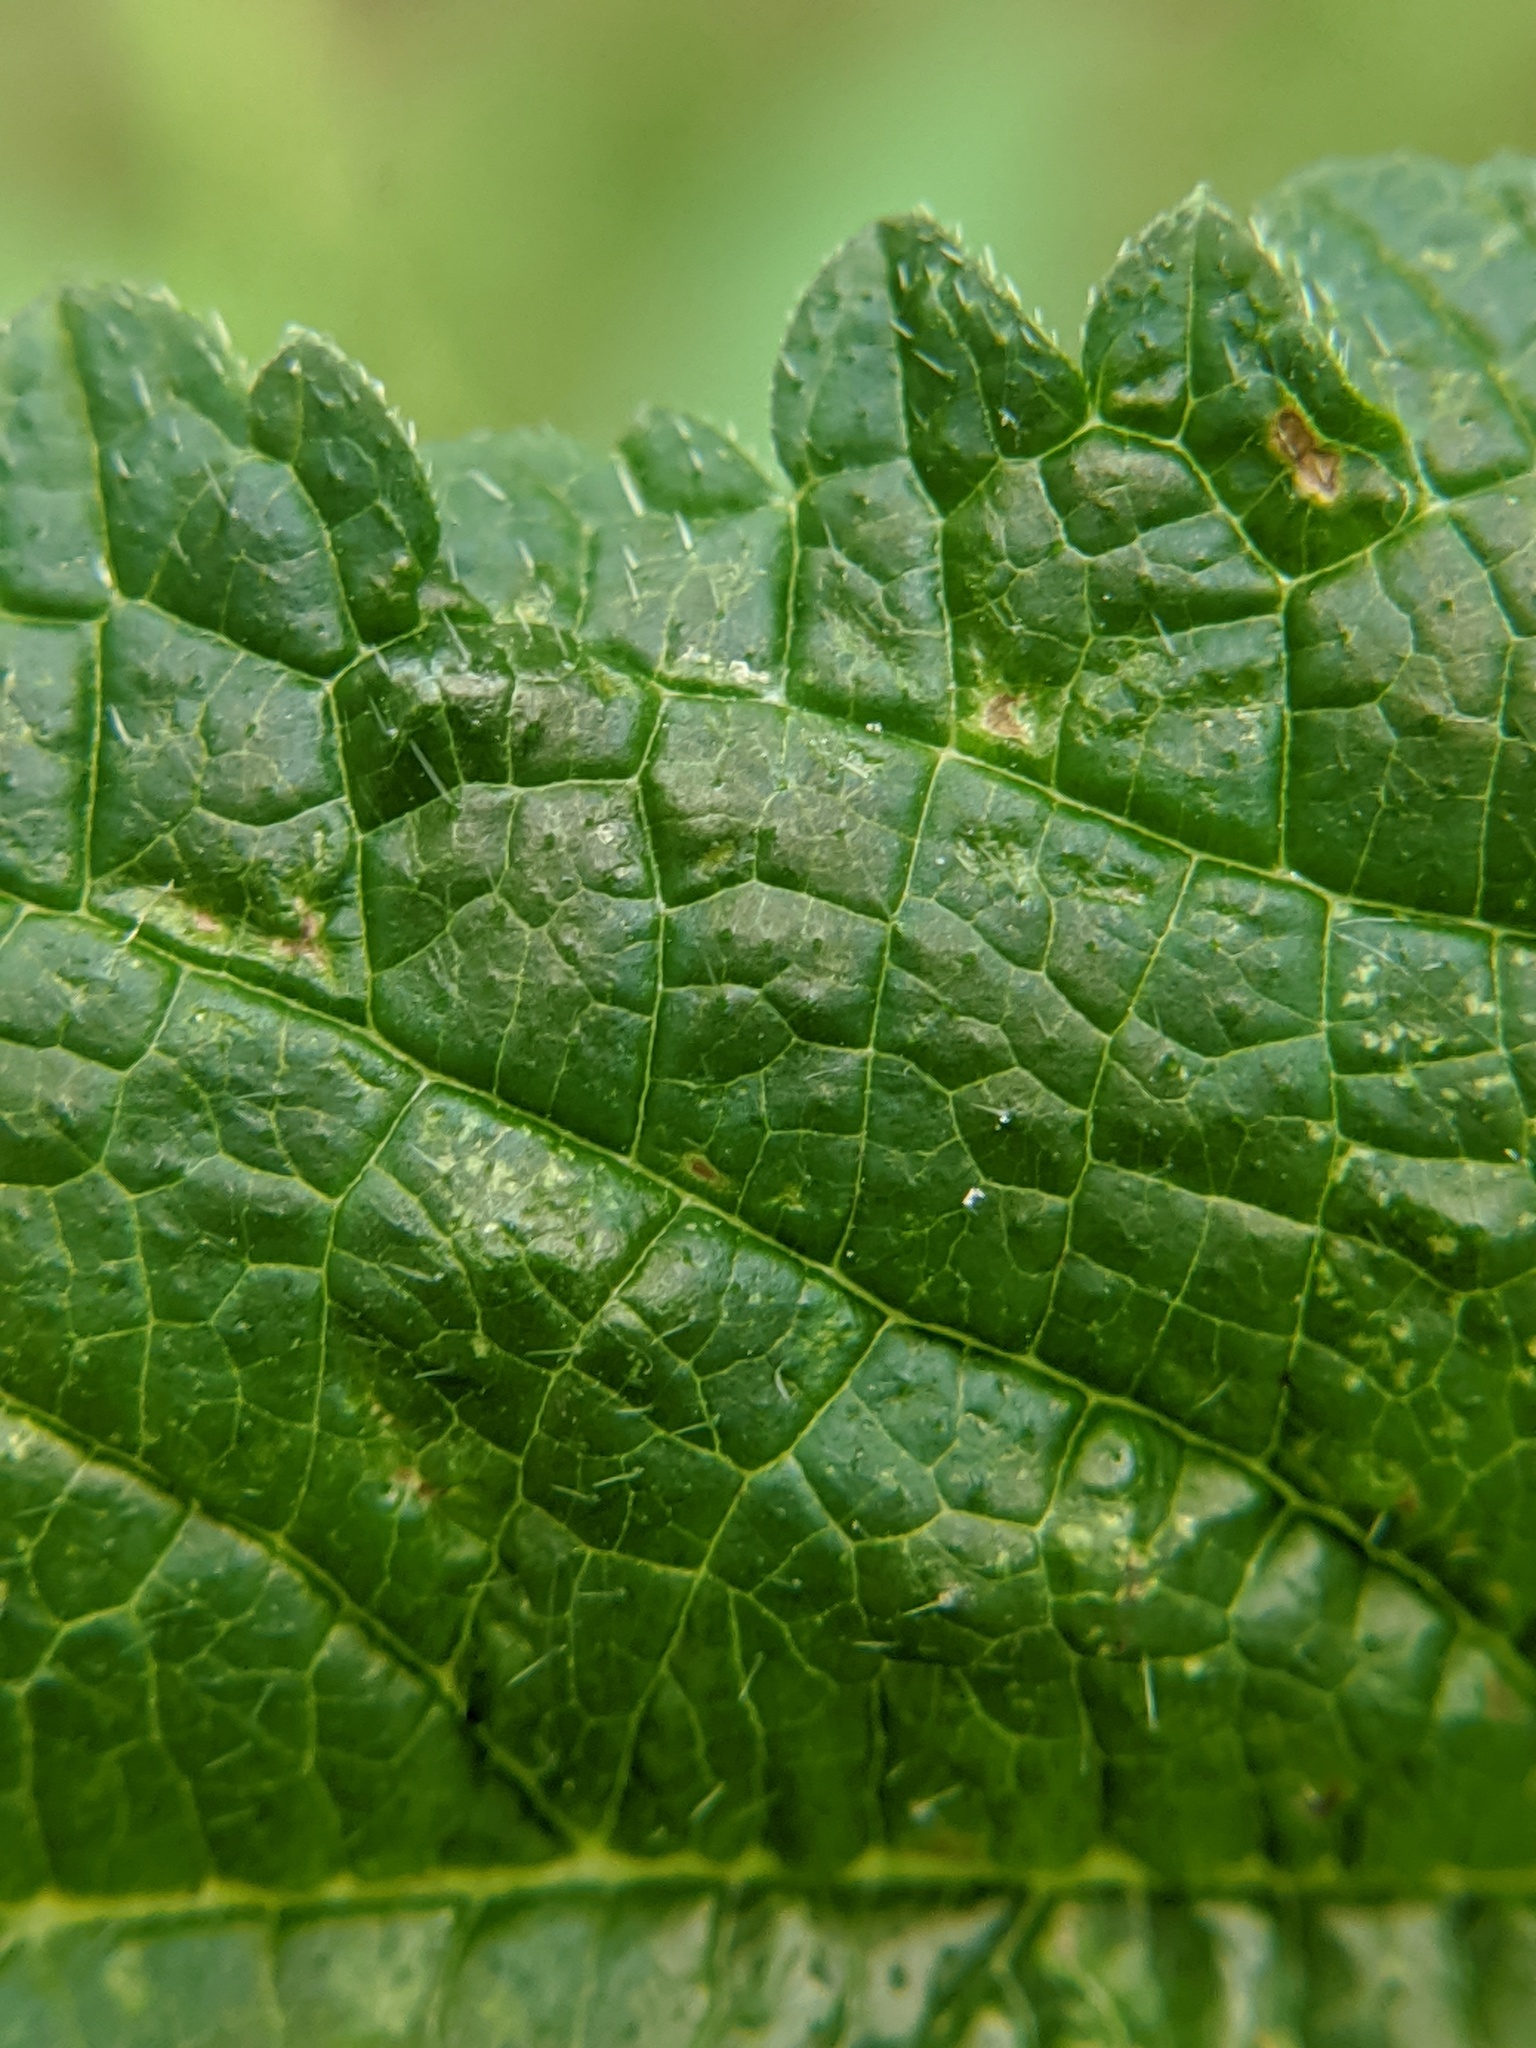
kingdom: Plantae
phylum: Tracheophyta
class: Magnoliopsida
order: Lamiales
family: Verbenaceae
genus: Verbena
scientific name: Verbena urticifolia
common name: Nettle-leaved vervain
